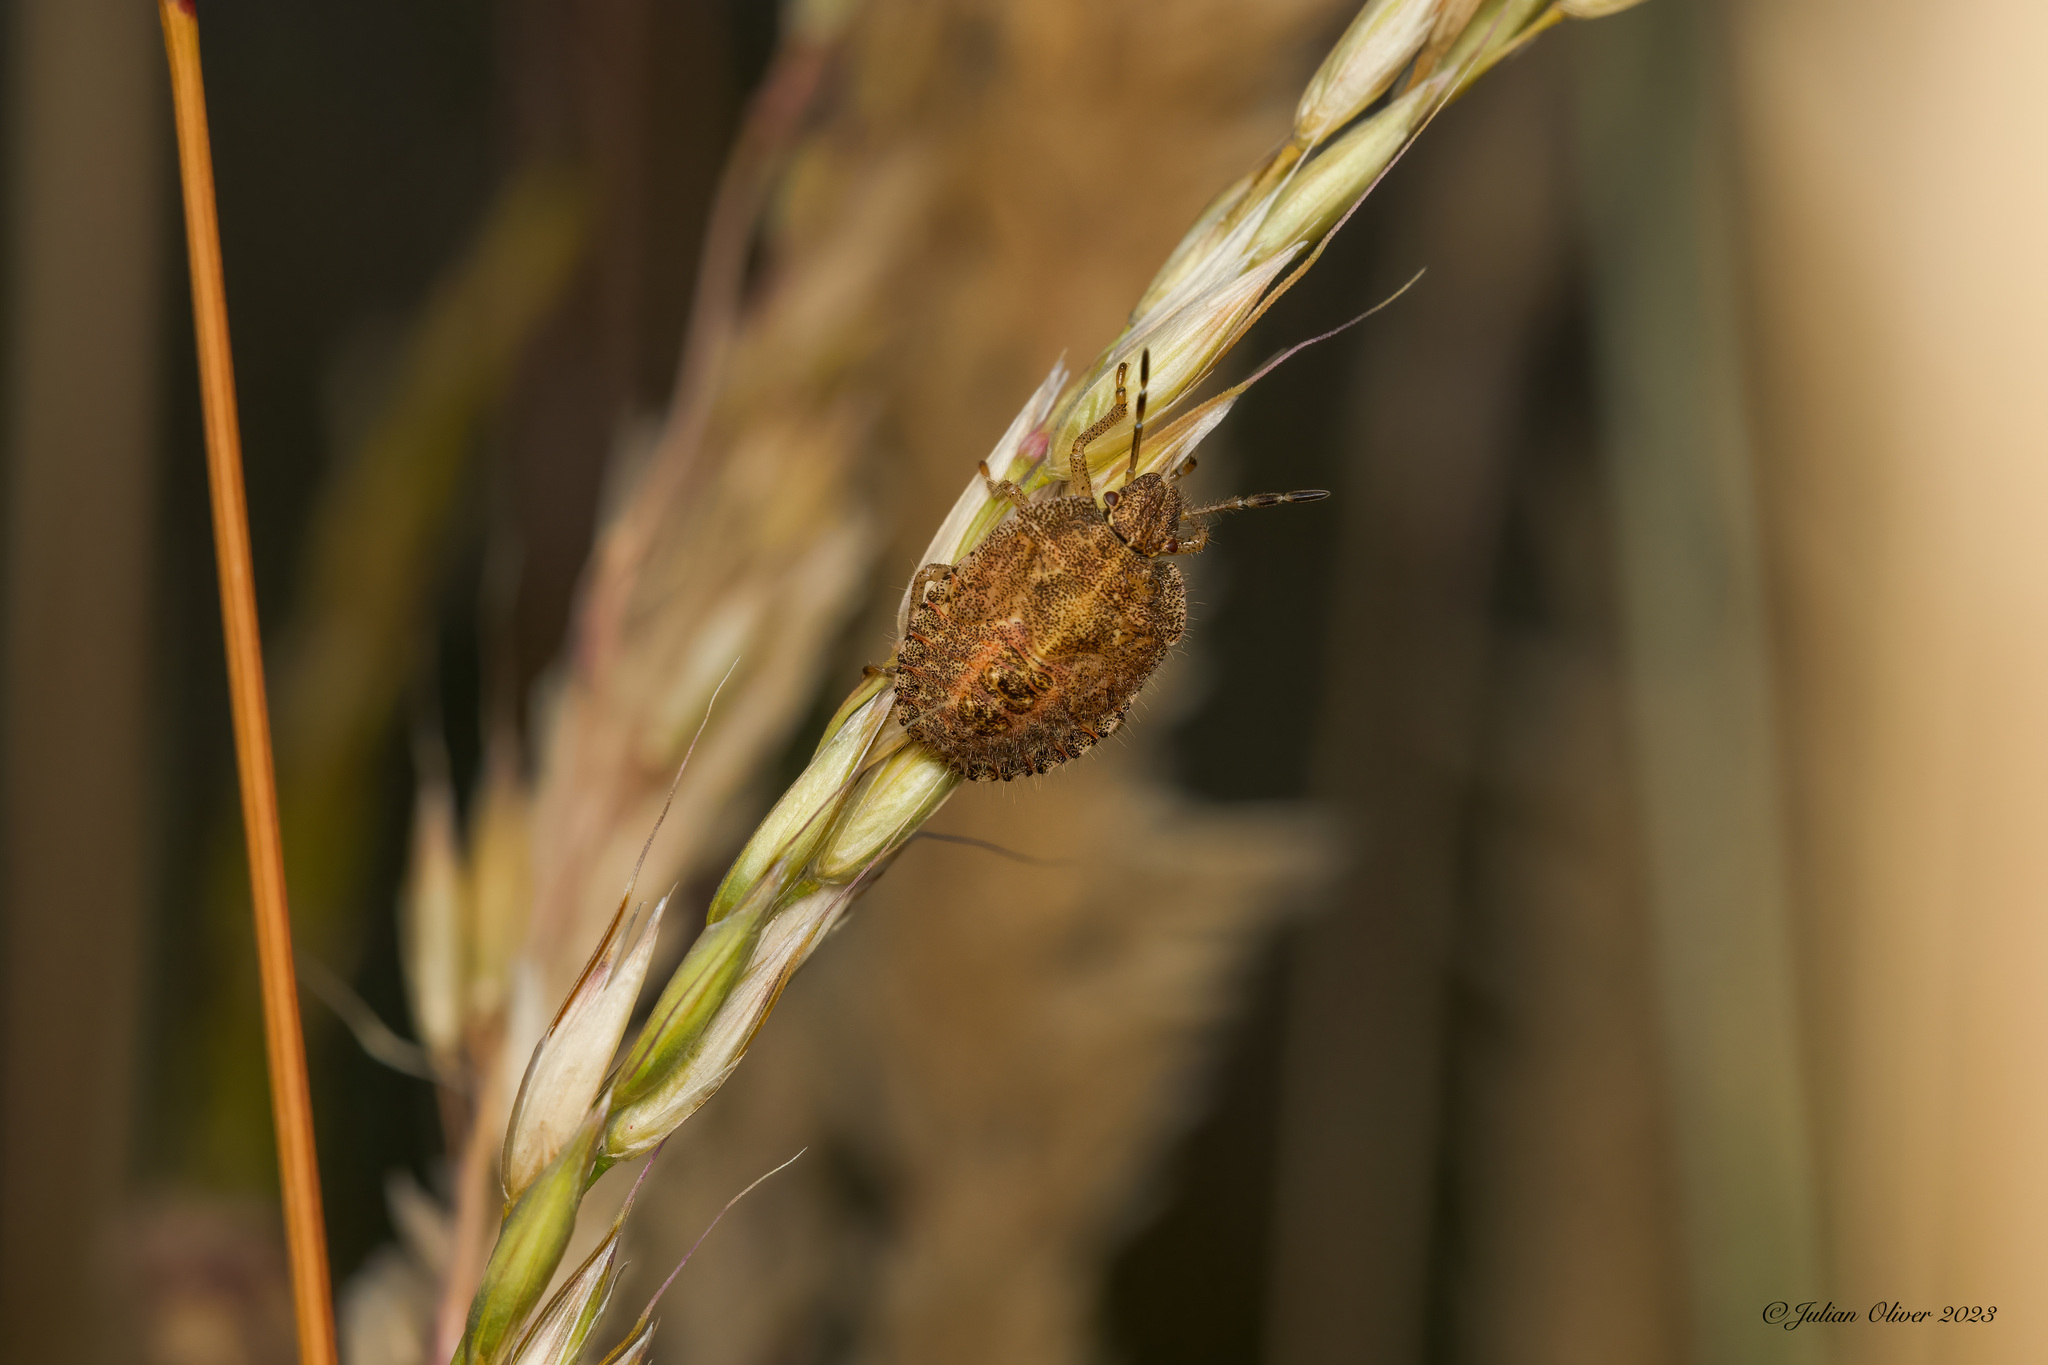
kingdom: Animalia
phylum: Arthropoda
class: Insecta
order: Hemiptera
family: Pentatomidae
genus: Dolycoris
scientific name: Dolycoris baccarum
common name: Sloe bug
